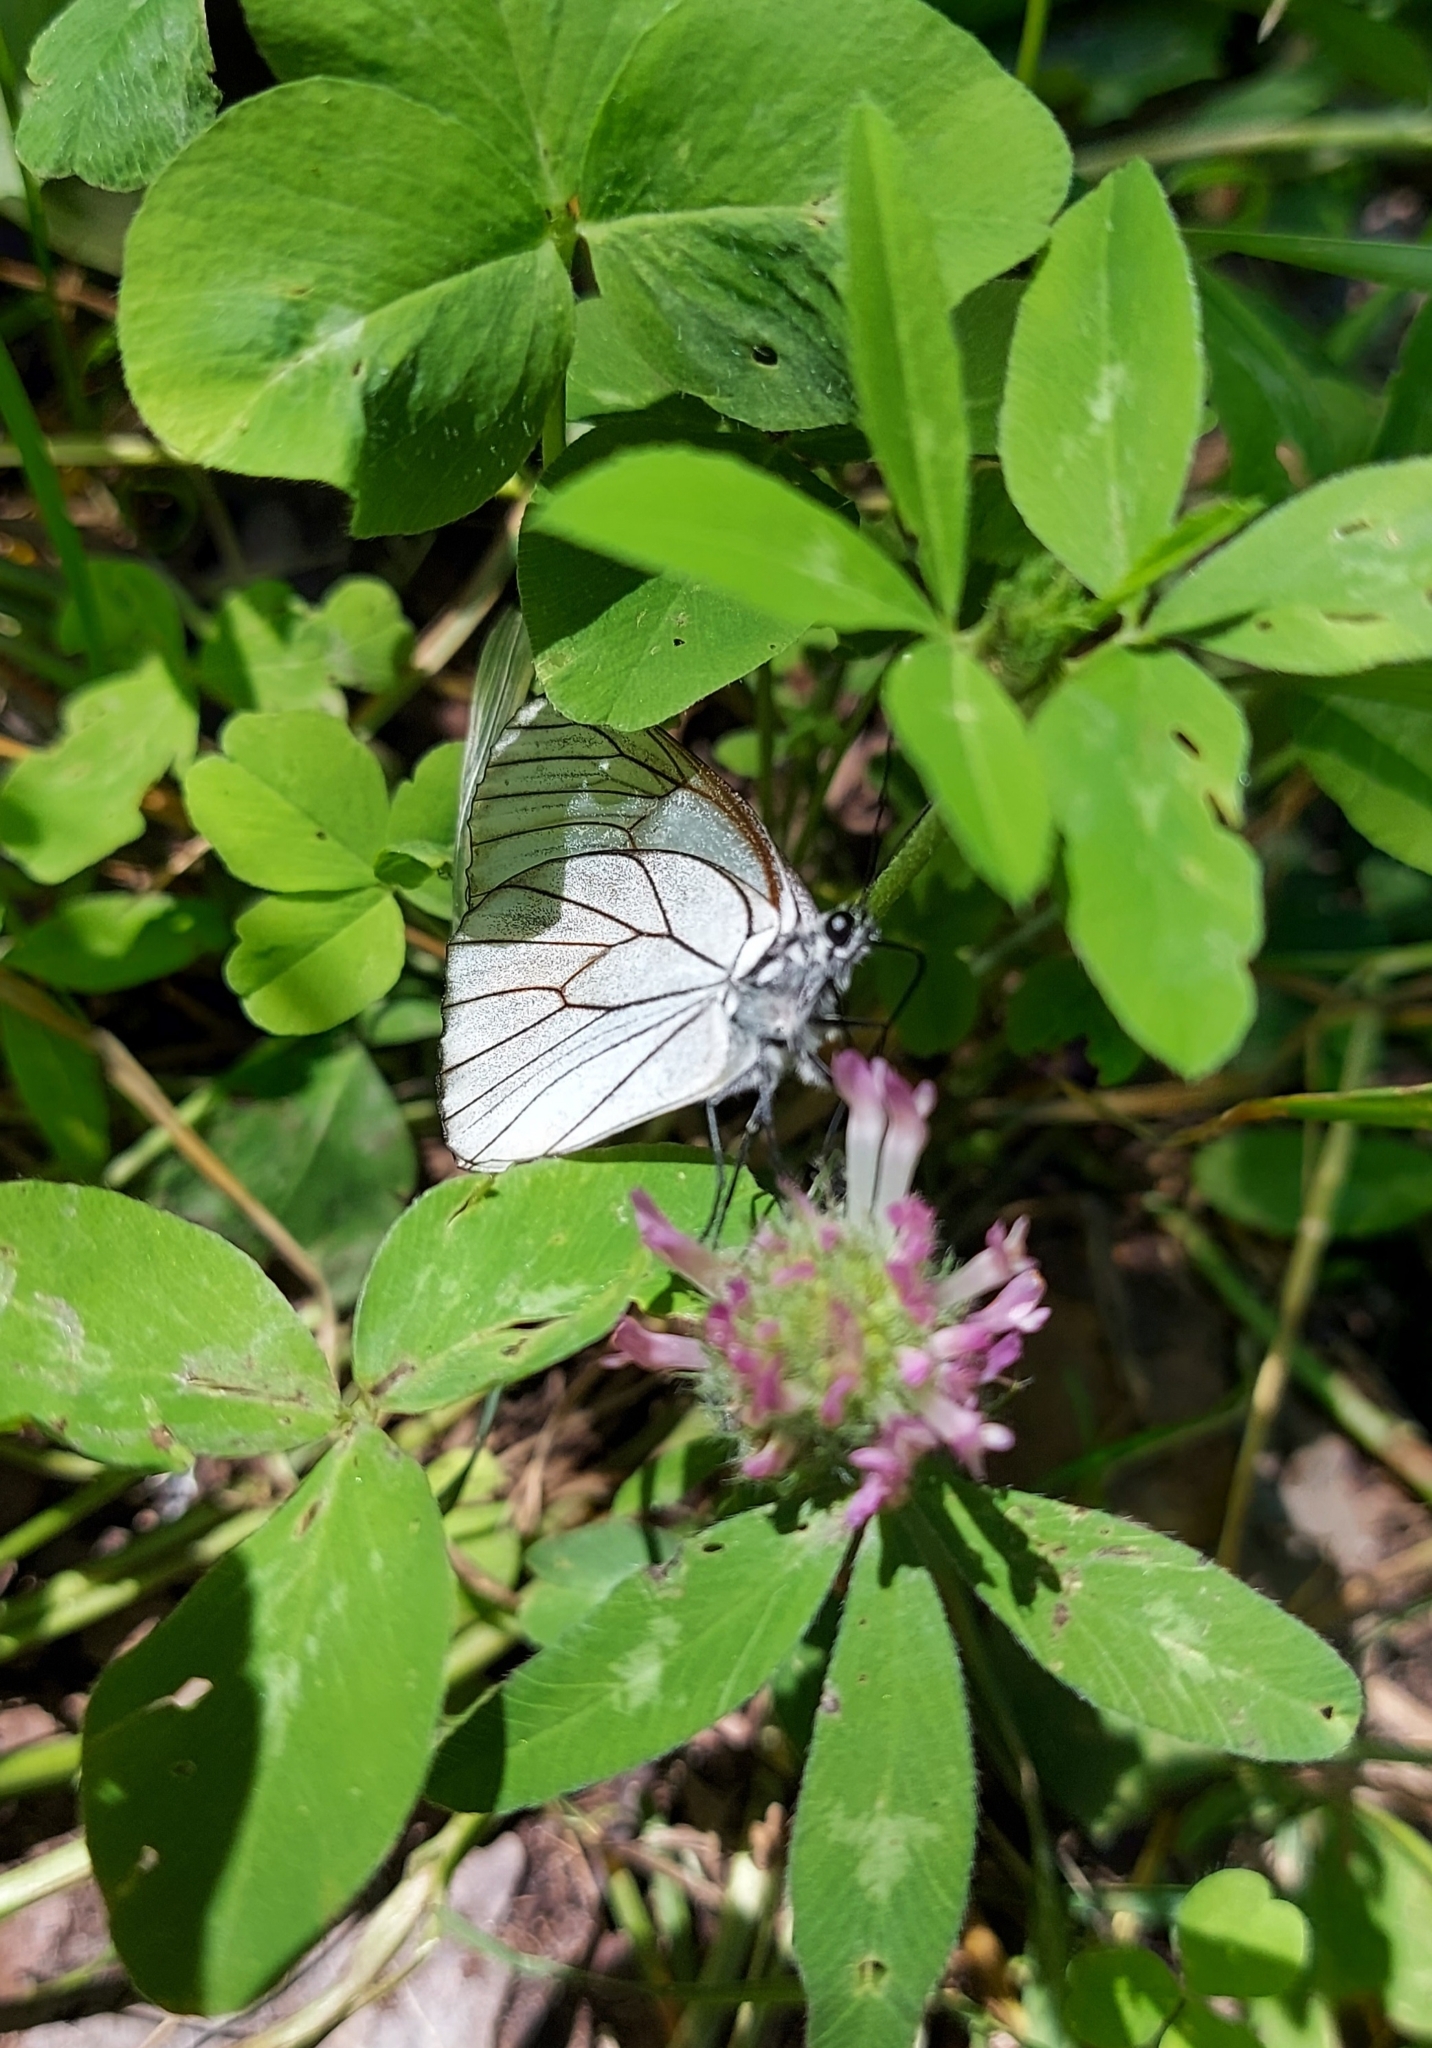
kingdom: Animalia
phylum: Arthropoda
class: Insecta
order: Lepidoptera
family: Pieridae
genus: Aporia
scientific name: Aporia crataegi
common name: Black-veined white
